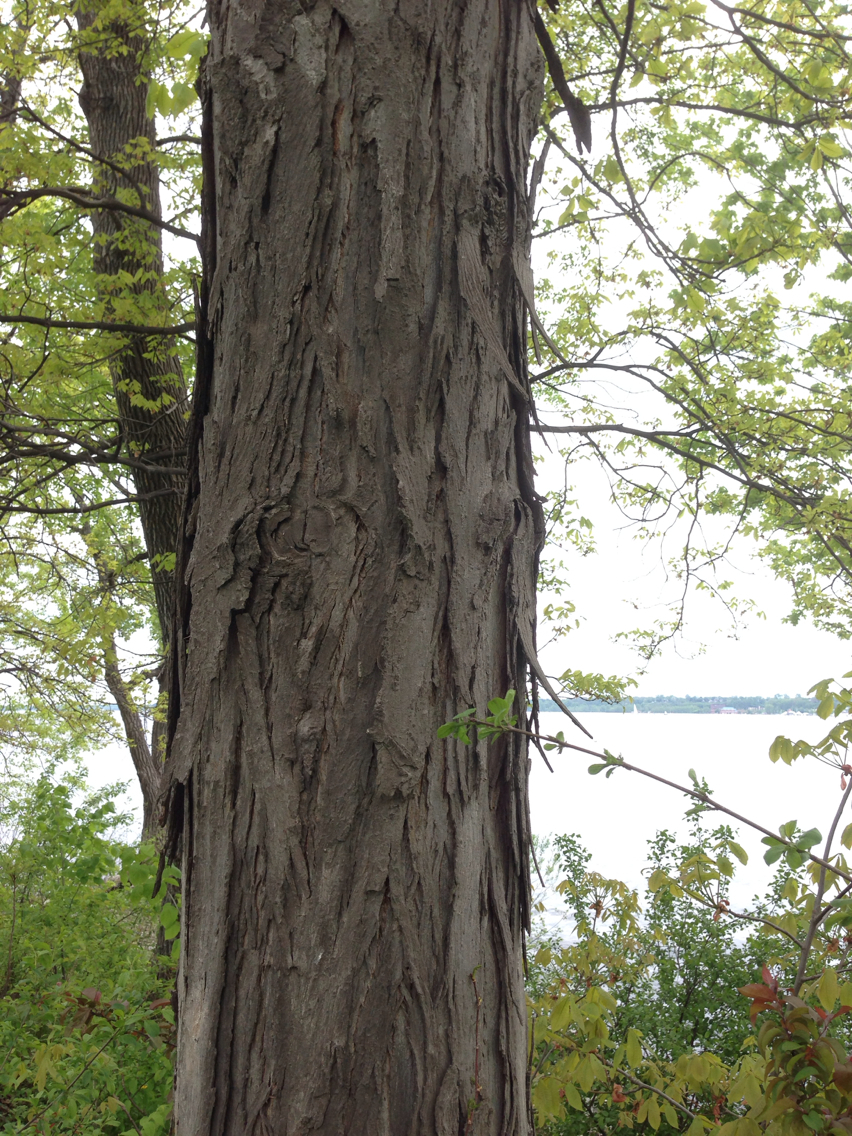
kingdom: Plantae
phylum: Tracheophyta
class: Magnoliopsida
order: Fagales
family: Juglandaceae
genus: Carya
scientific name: Carya ovata
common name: Shagbark hickory
